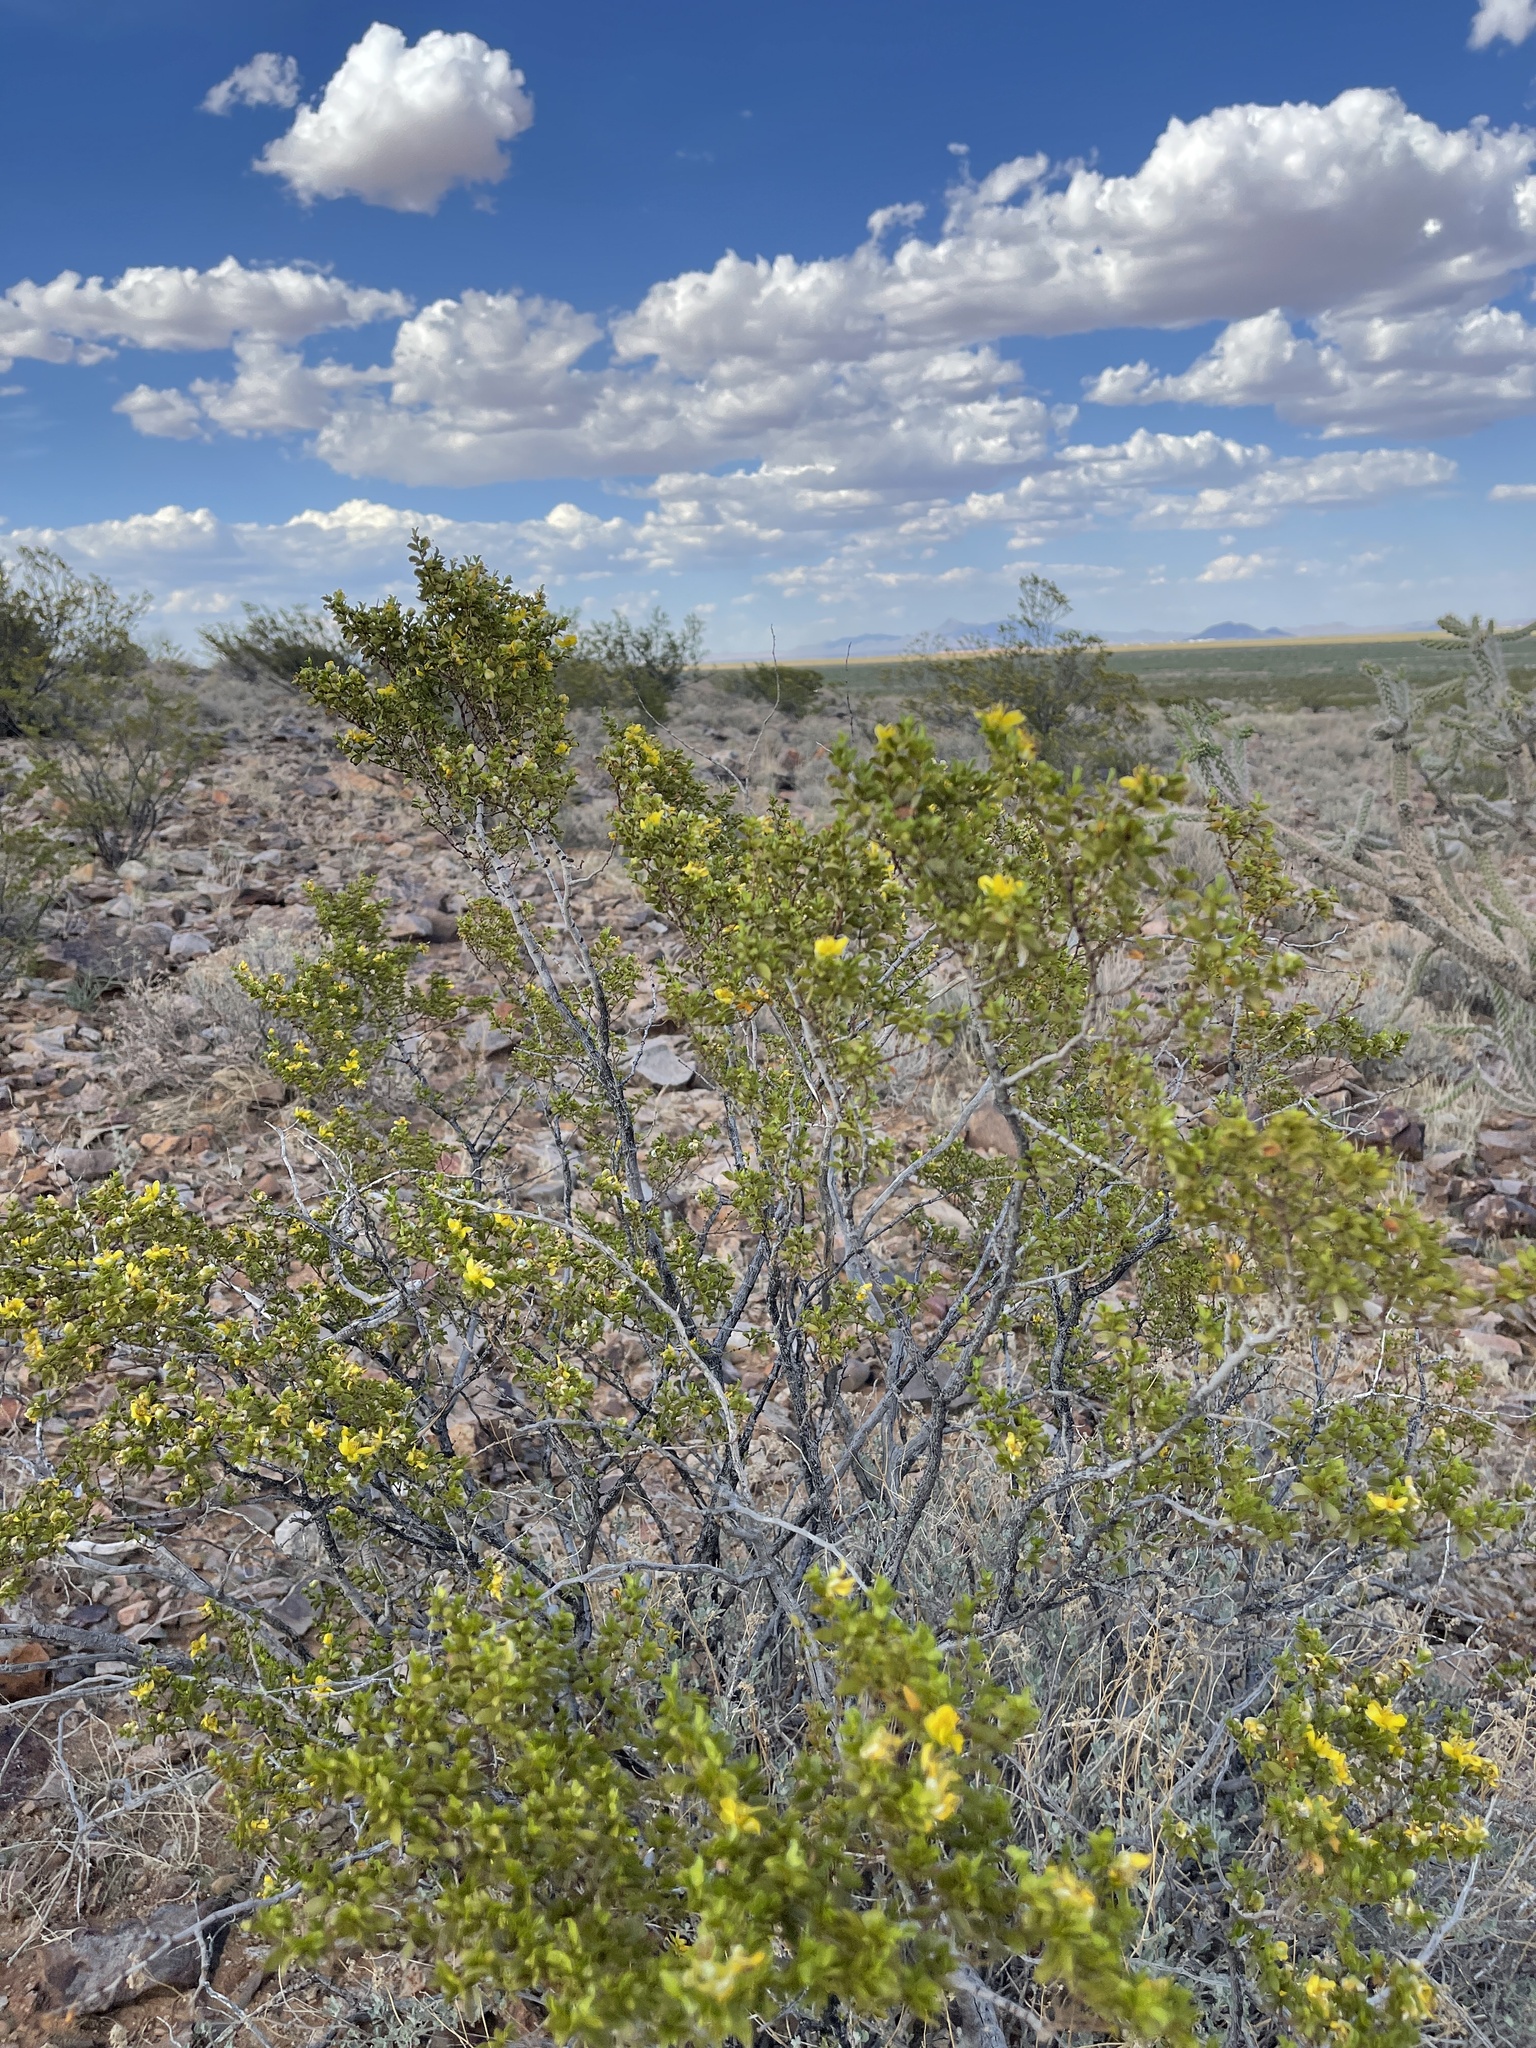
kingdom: Plantae
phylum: Tracheophyta
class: Magnoliopsida
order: Zygophyllales
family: Zygophyllaceae
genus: Larrea
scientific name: Larrea tridentata
